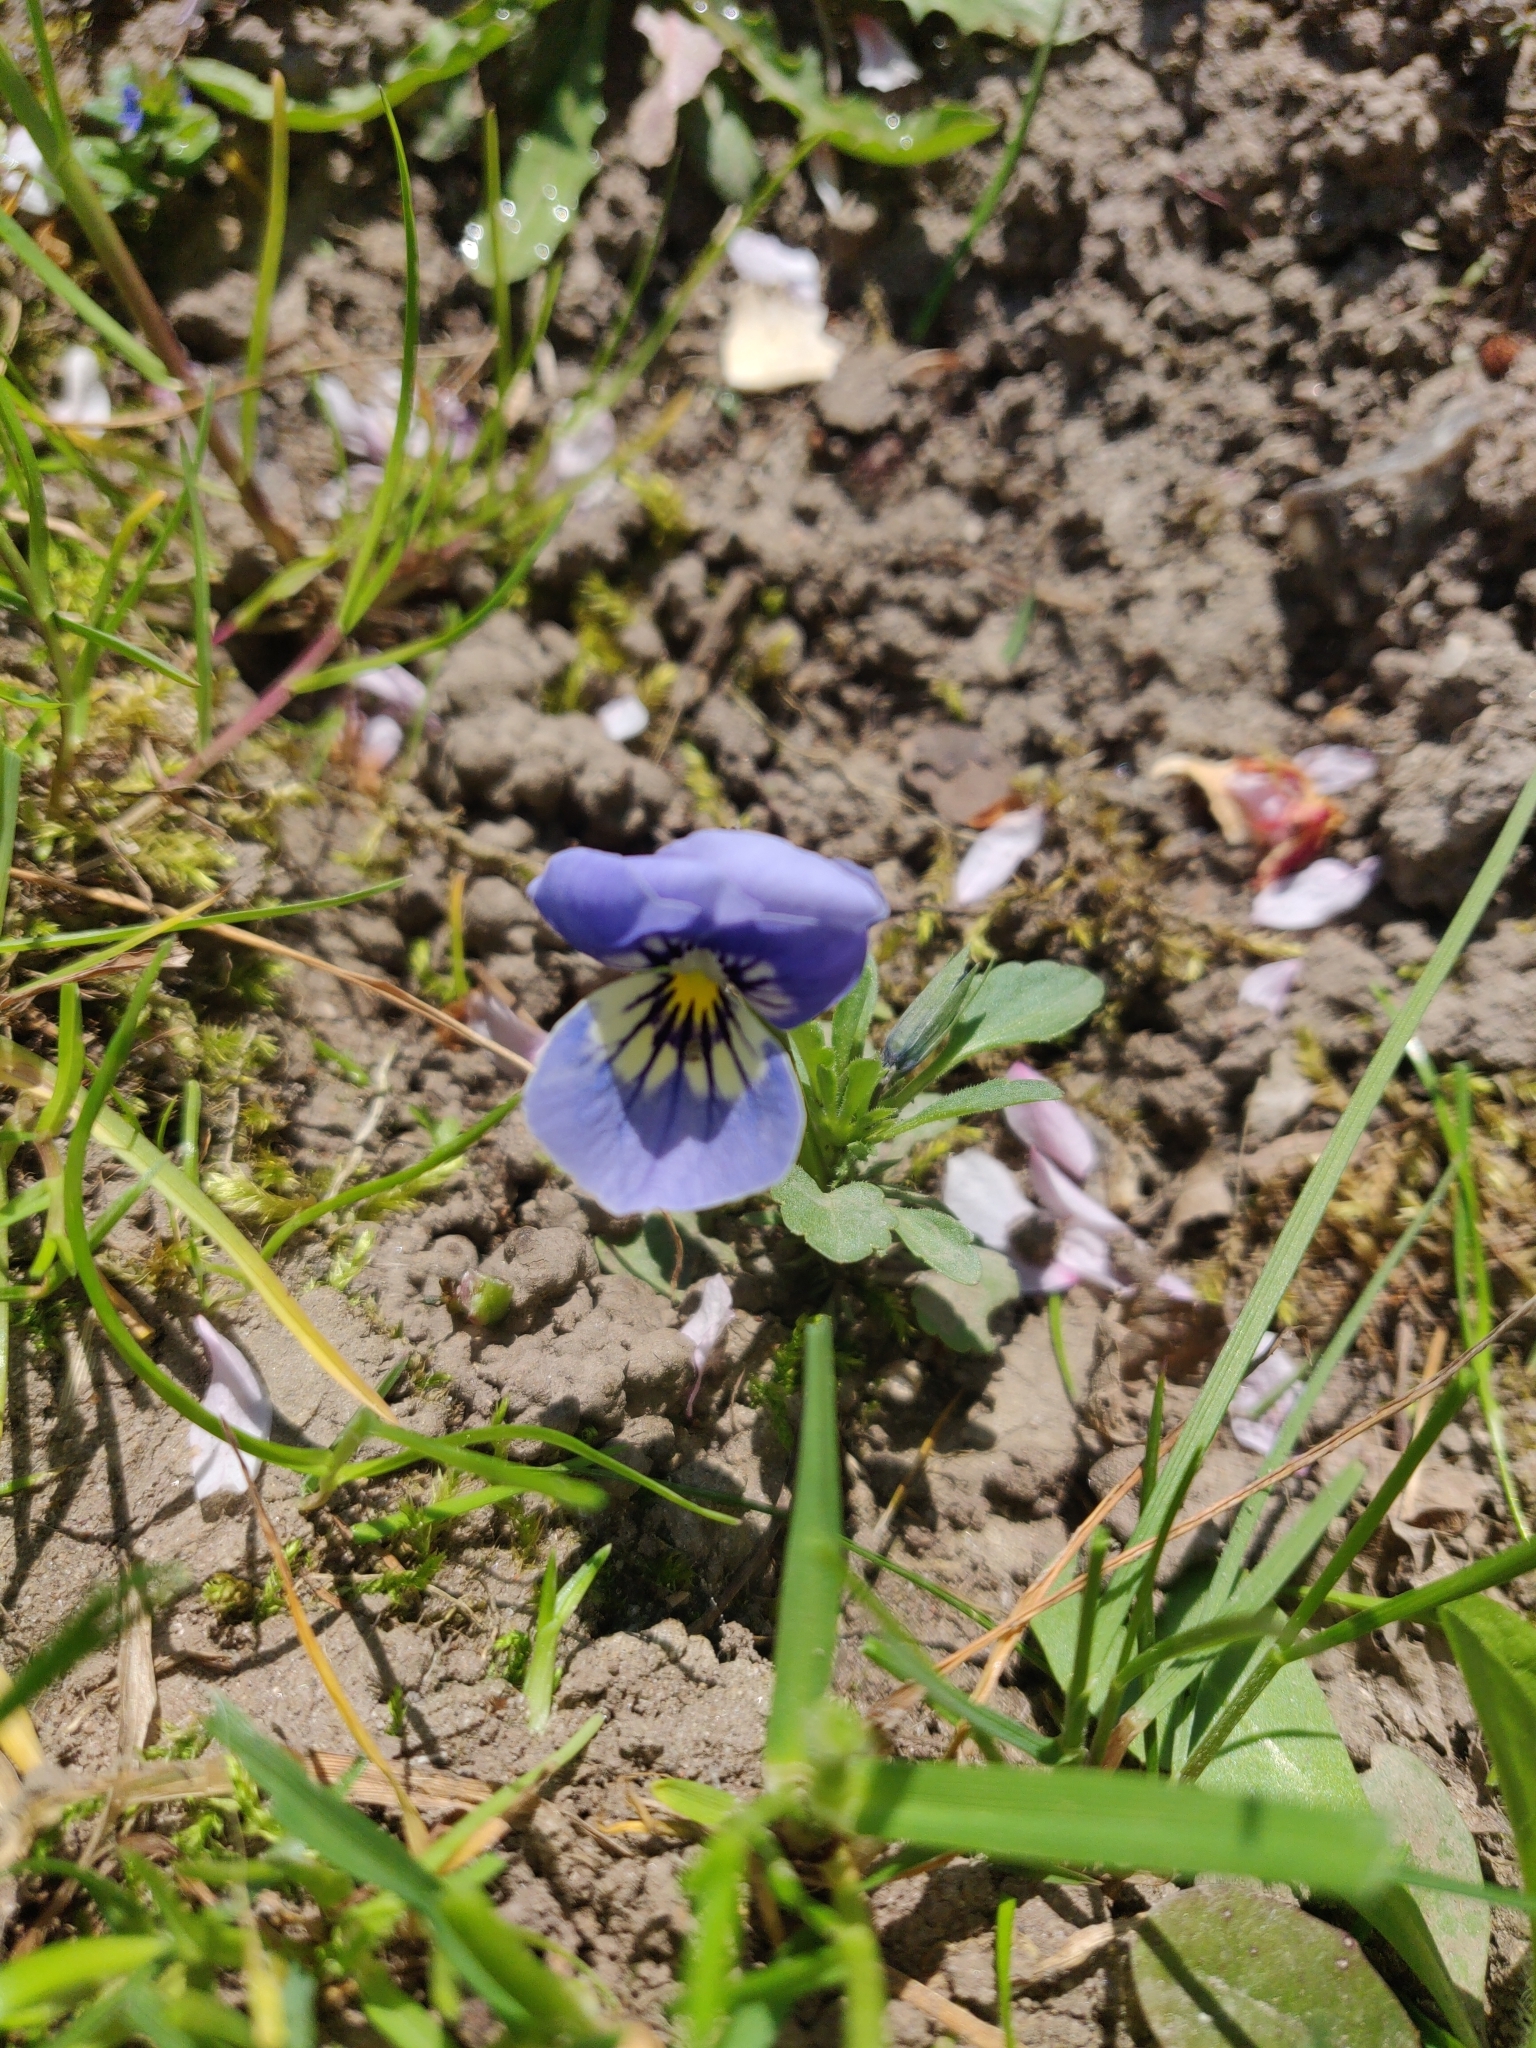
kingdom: Plantae
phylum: Tracheophyta
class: Magnoliopsida
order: Malpighiales
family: Violaceae
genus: Viola
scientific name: Viola williamsii
